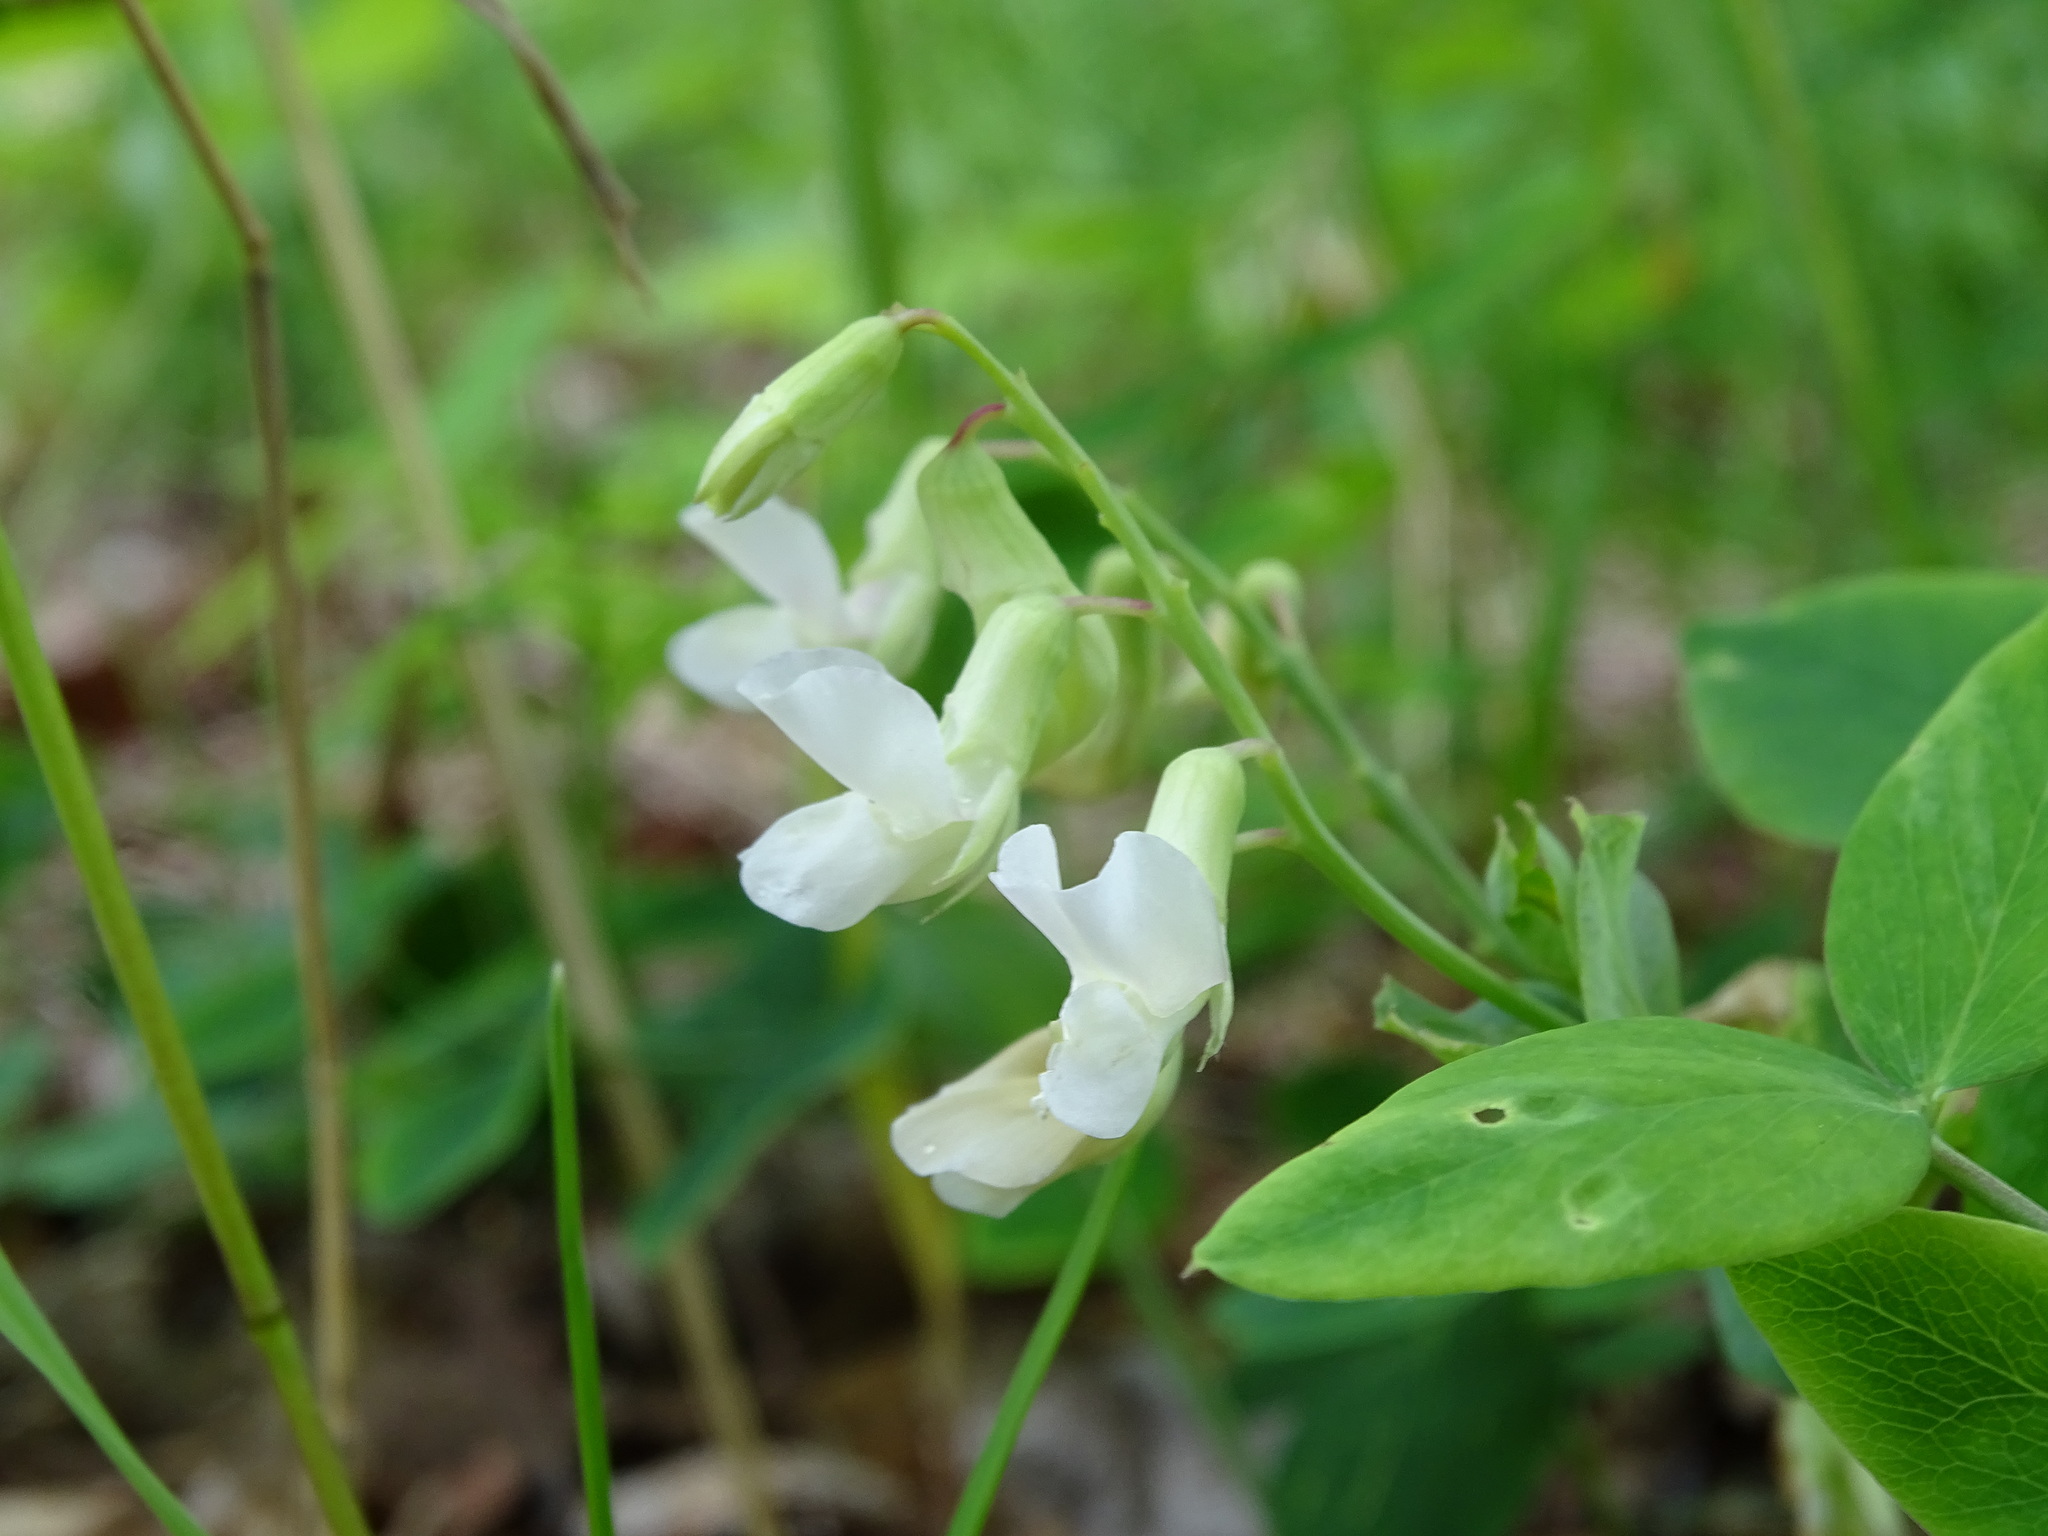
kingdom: Plantae
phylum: Tracheophyta
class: Magnoliopsida
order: Fabales
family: Fabaceae
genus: Lathyrus
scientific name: Lathyrus ochroleucus
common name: Pale vetchling
